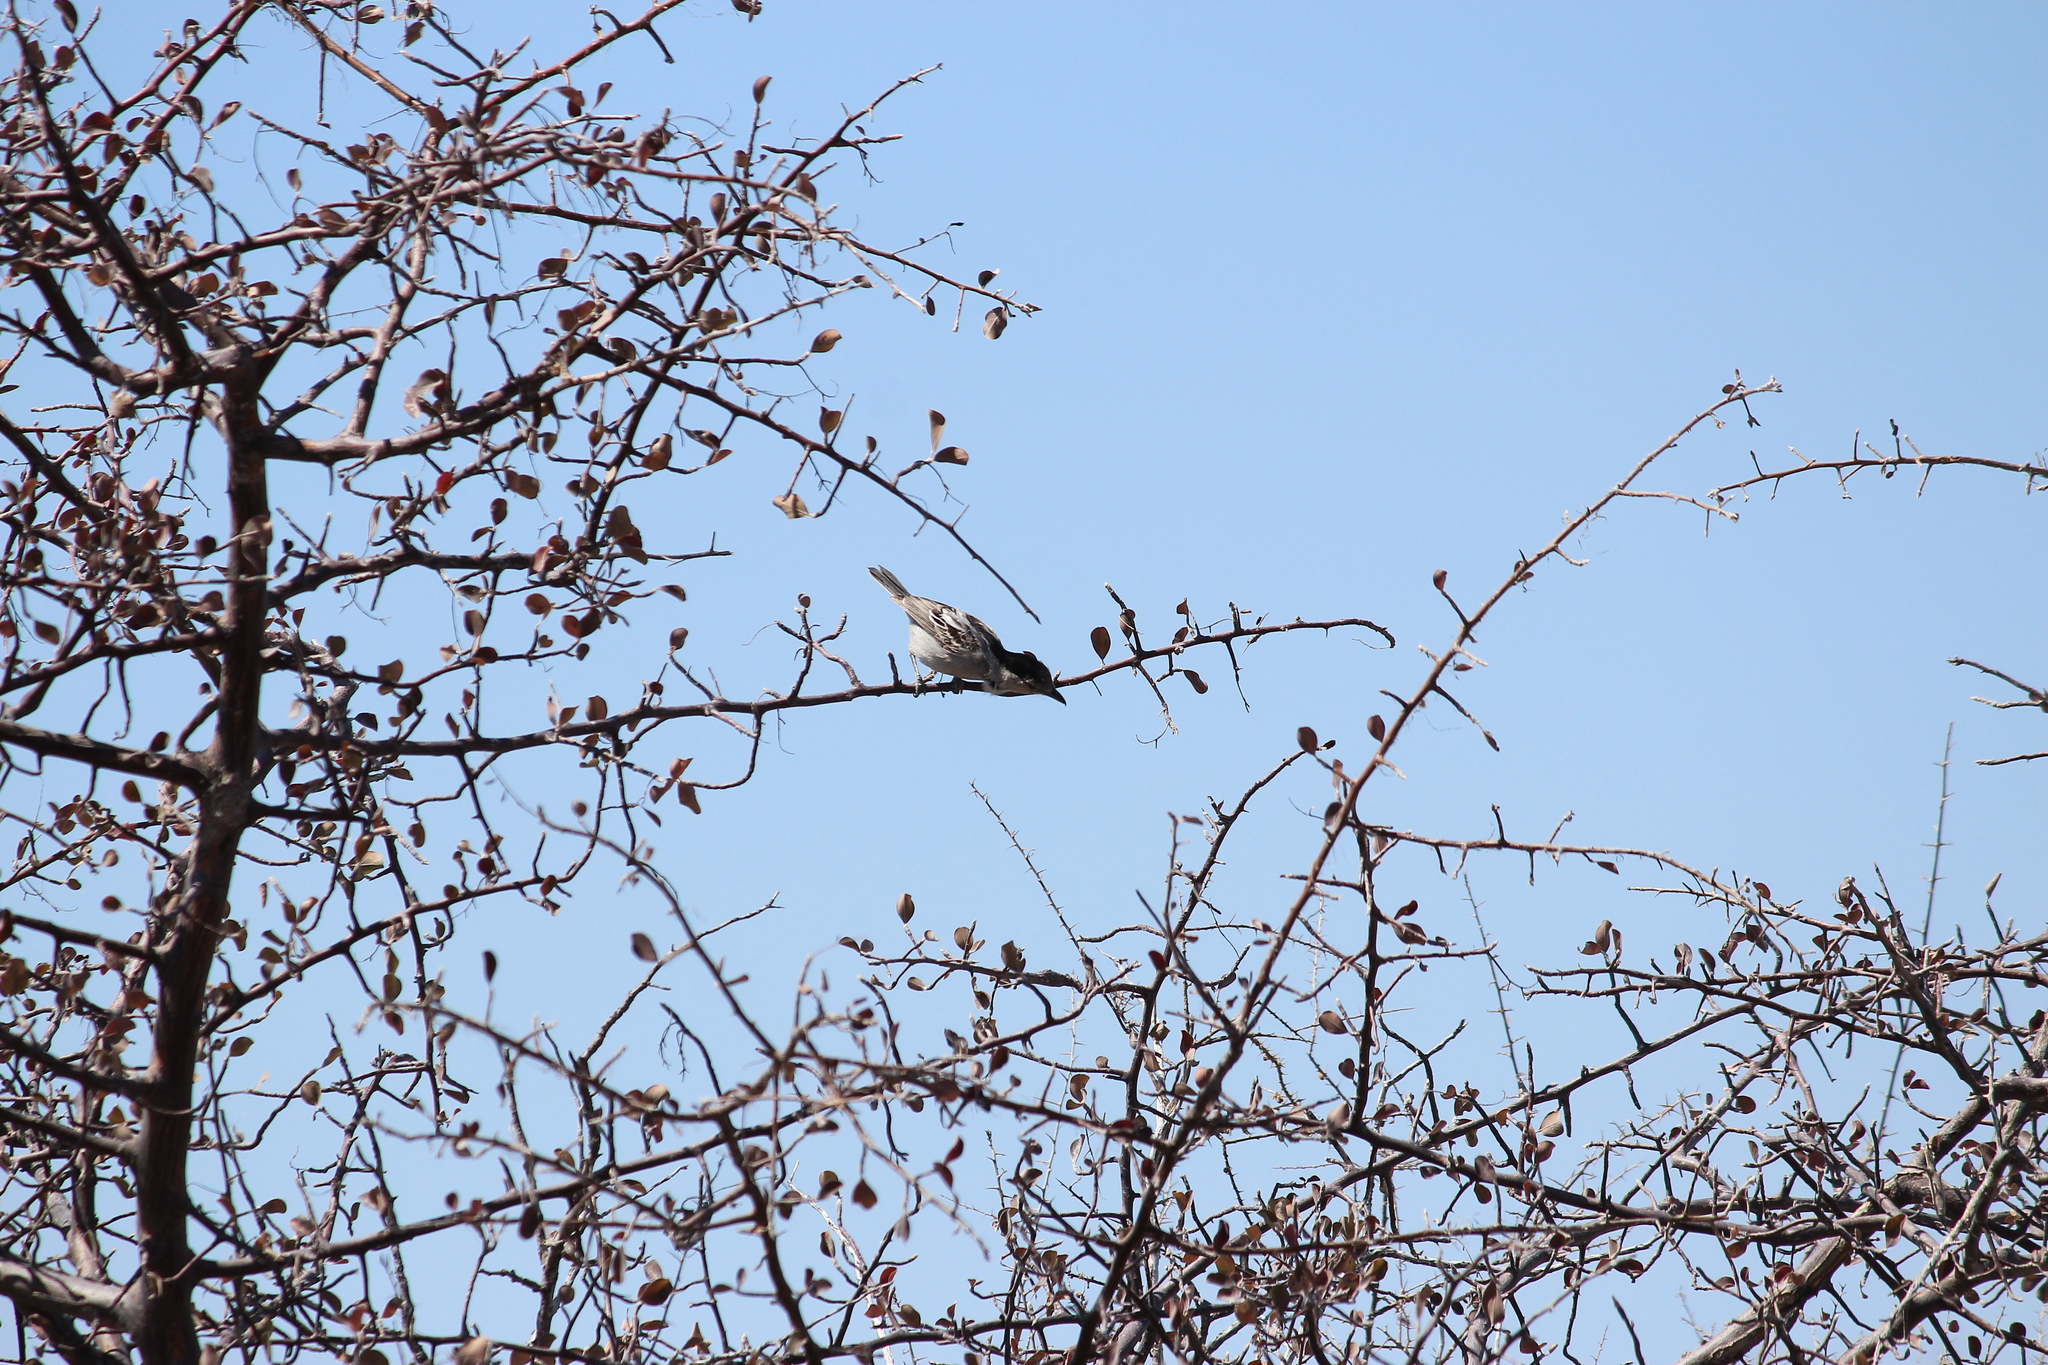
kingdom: Animalia
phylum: Chordata
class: Aves
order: Passeriformes
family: Malaconotidae
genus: Dryoscopus
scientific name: Dryoscopus cubla
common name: Black-backed puffback
